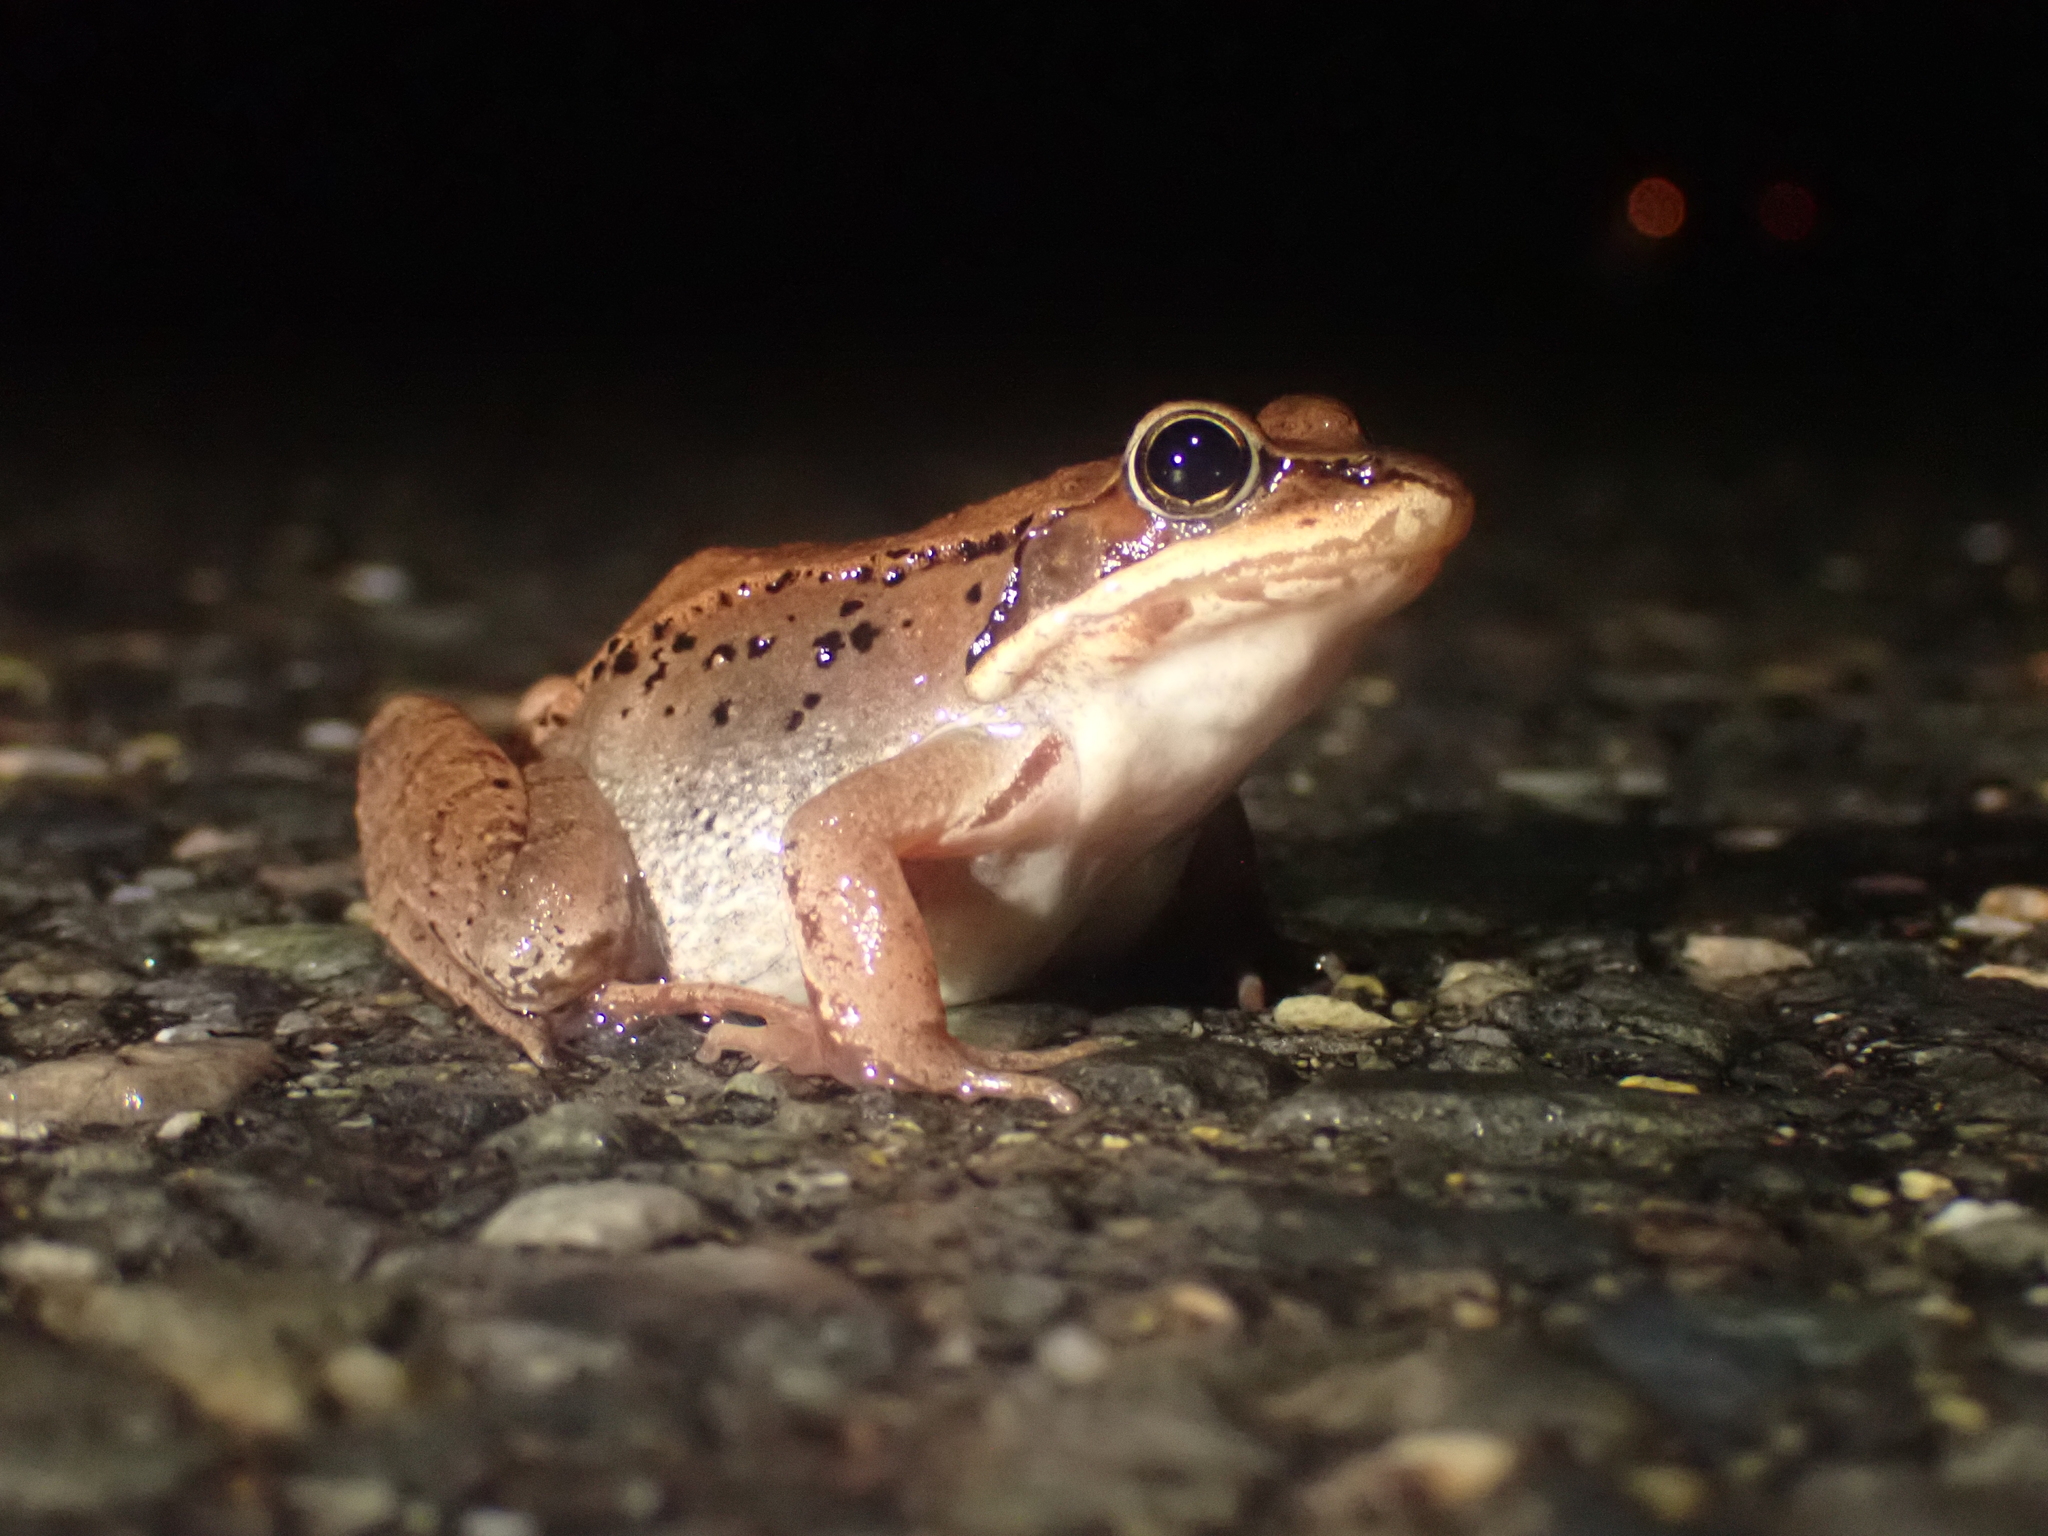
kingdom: Animalia
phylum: Chordata
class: Amphibia
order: Anura
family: Ranidae
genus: Lithobates
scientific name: Lithobates sylvaticus
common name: Wood frog
